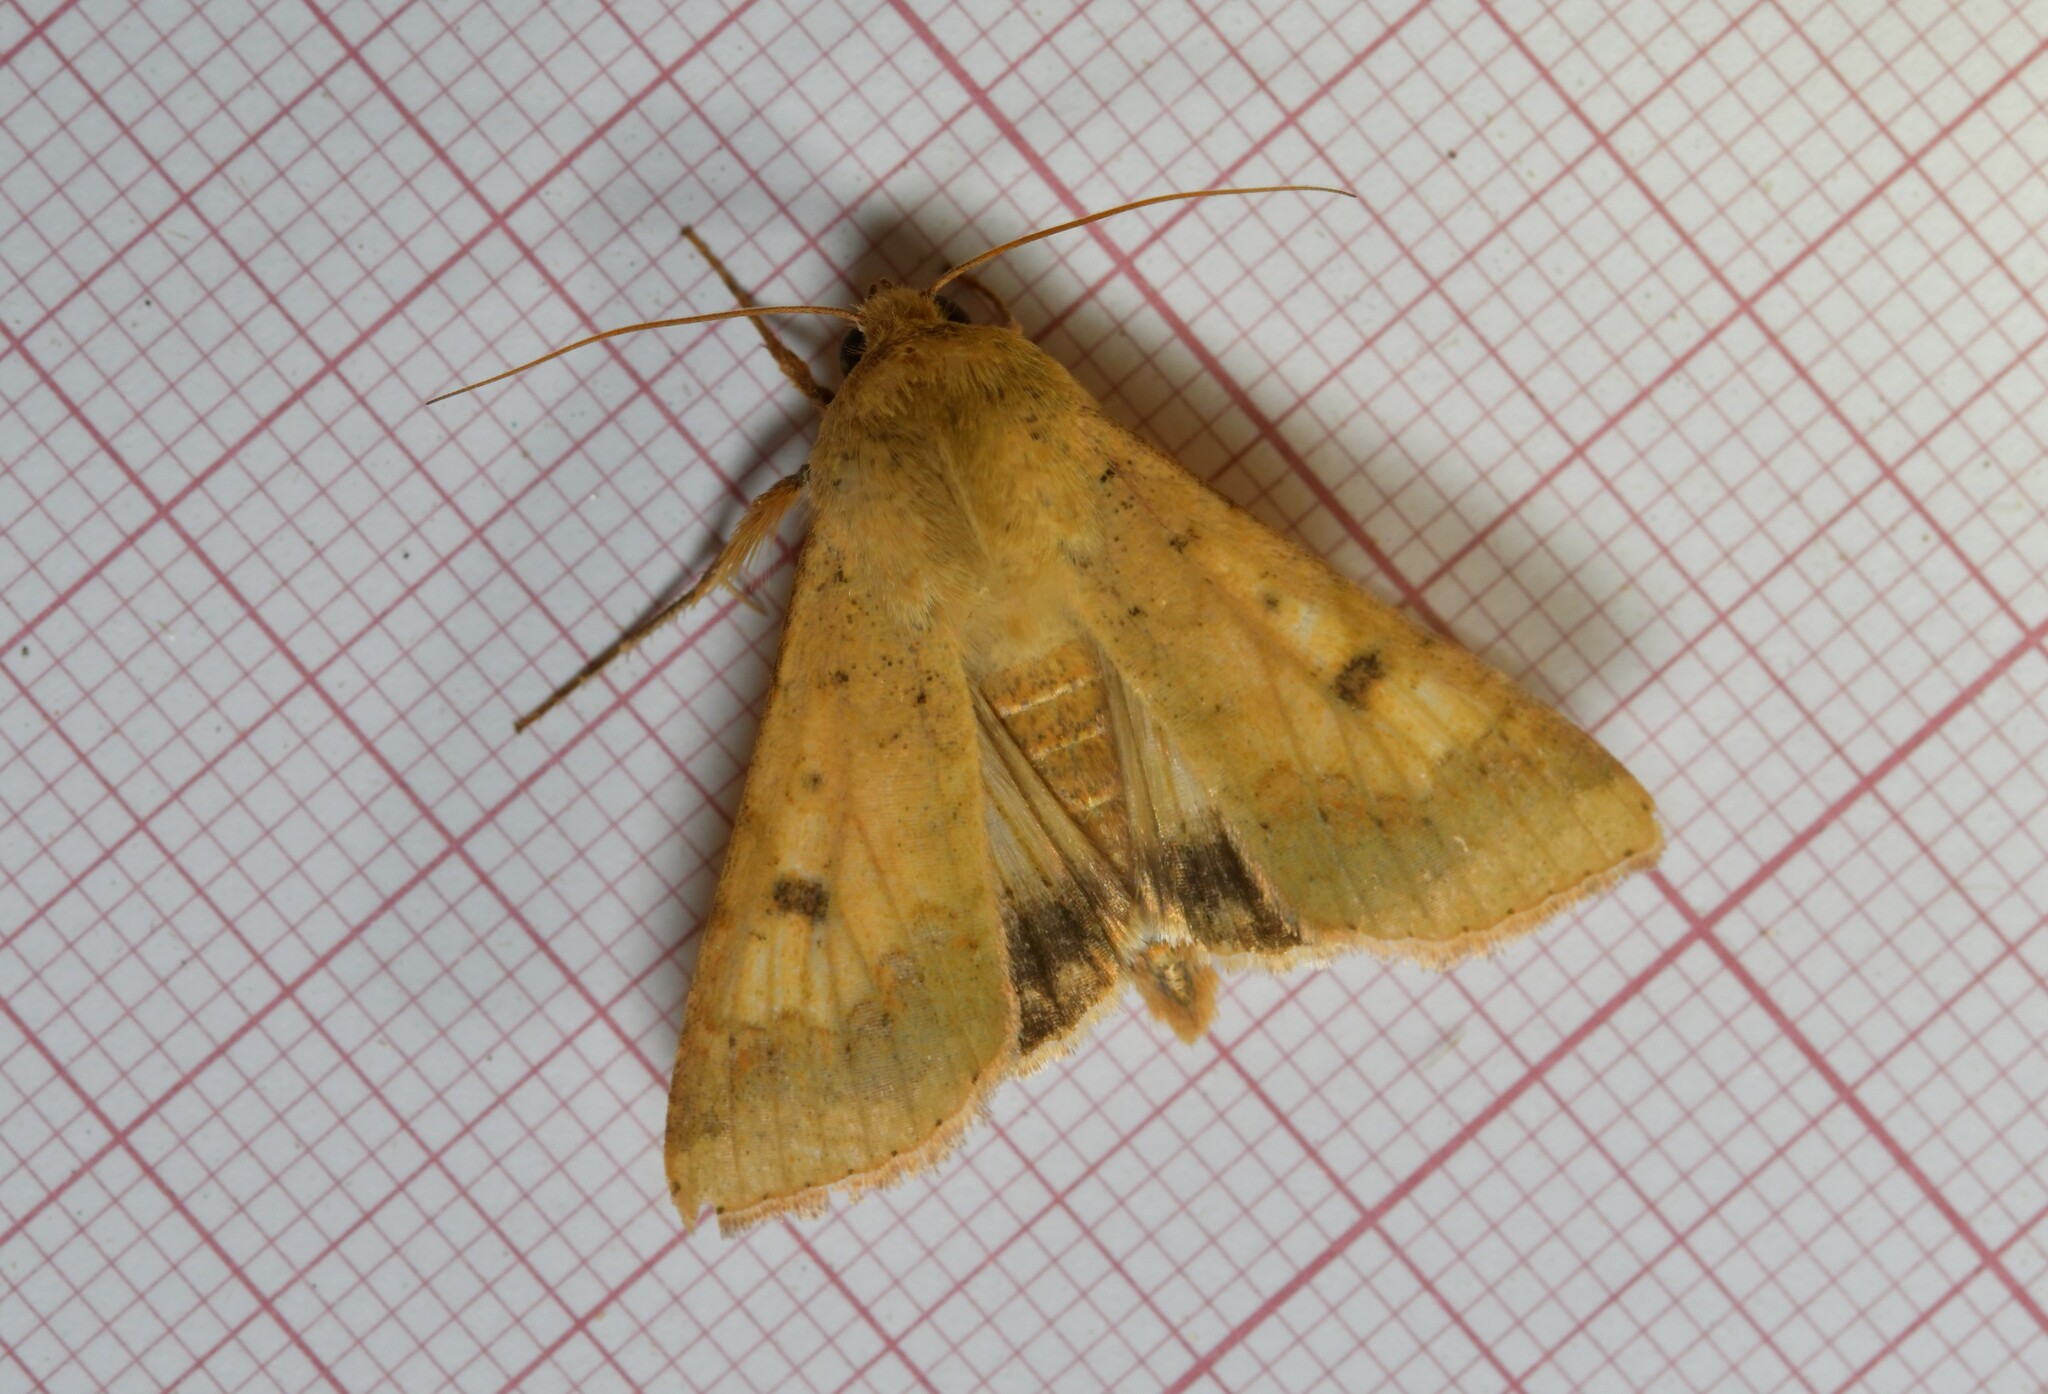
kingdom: Animalia
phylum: Arthropoda
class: Insecta
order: Lepidoptera
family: Noctuidae
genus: Helicoverpa
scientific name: Helicoverpa armigera
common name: Cotton bollworm
